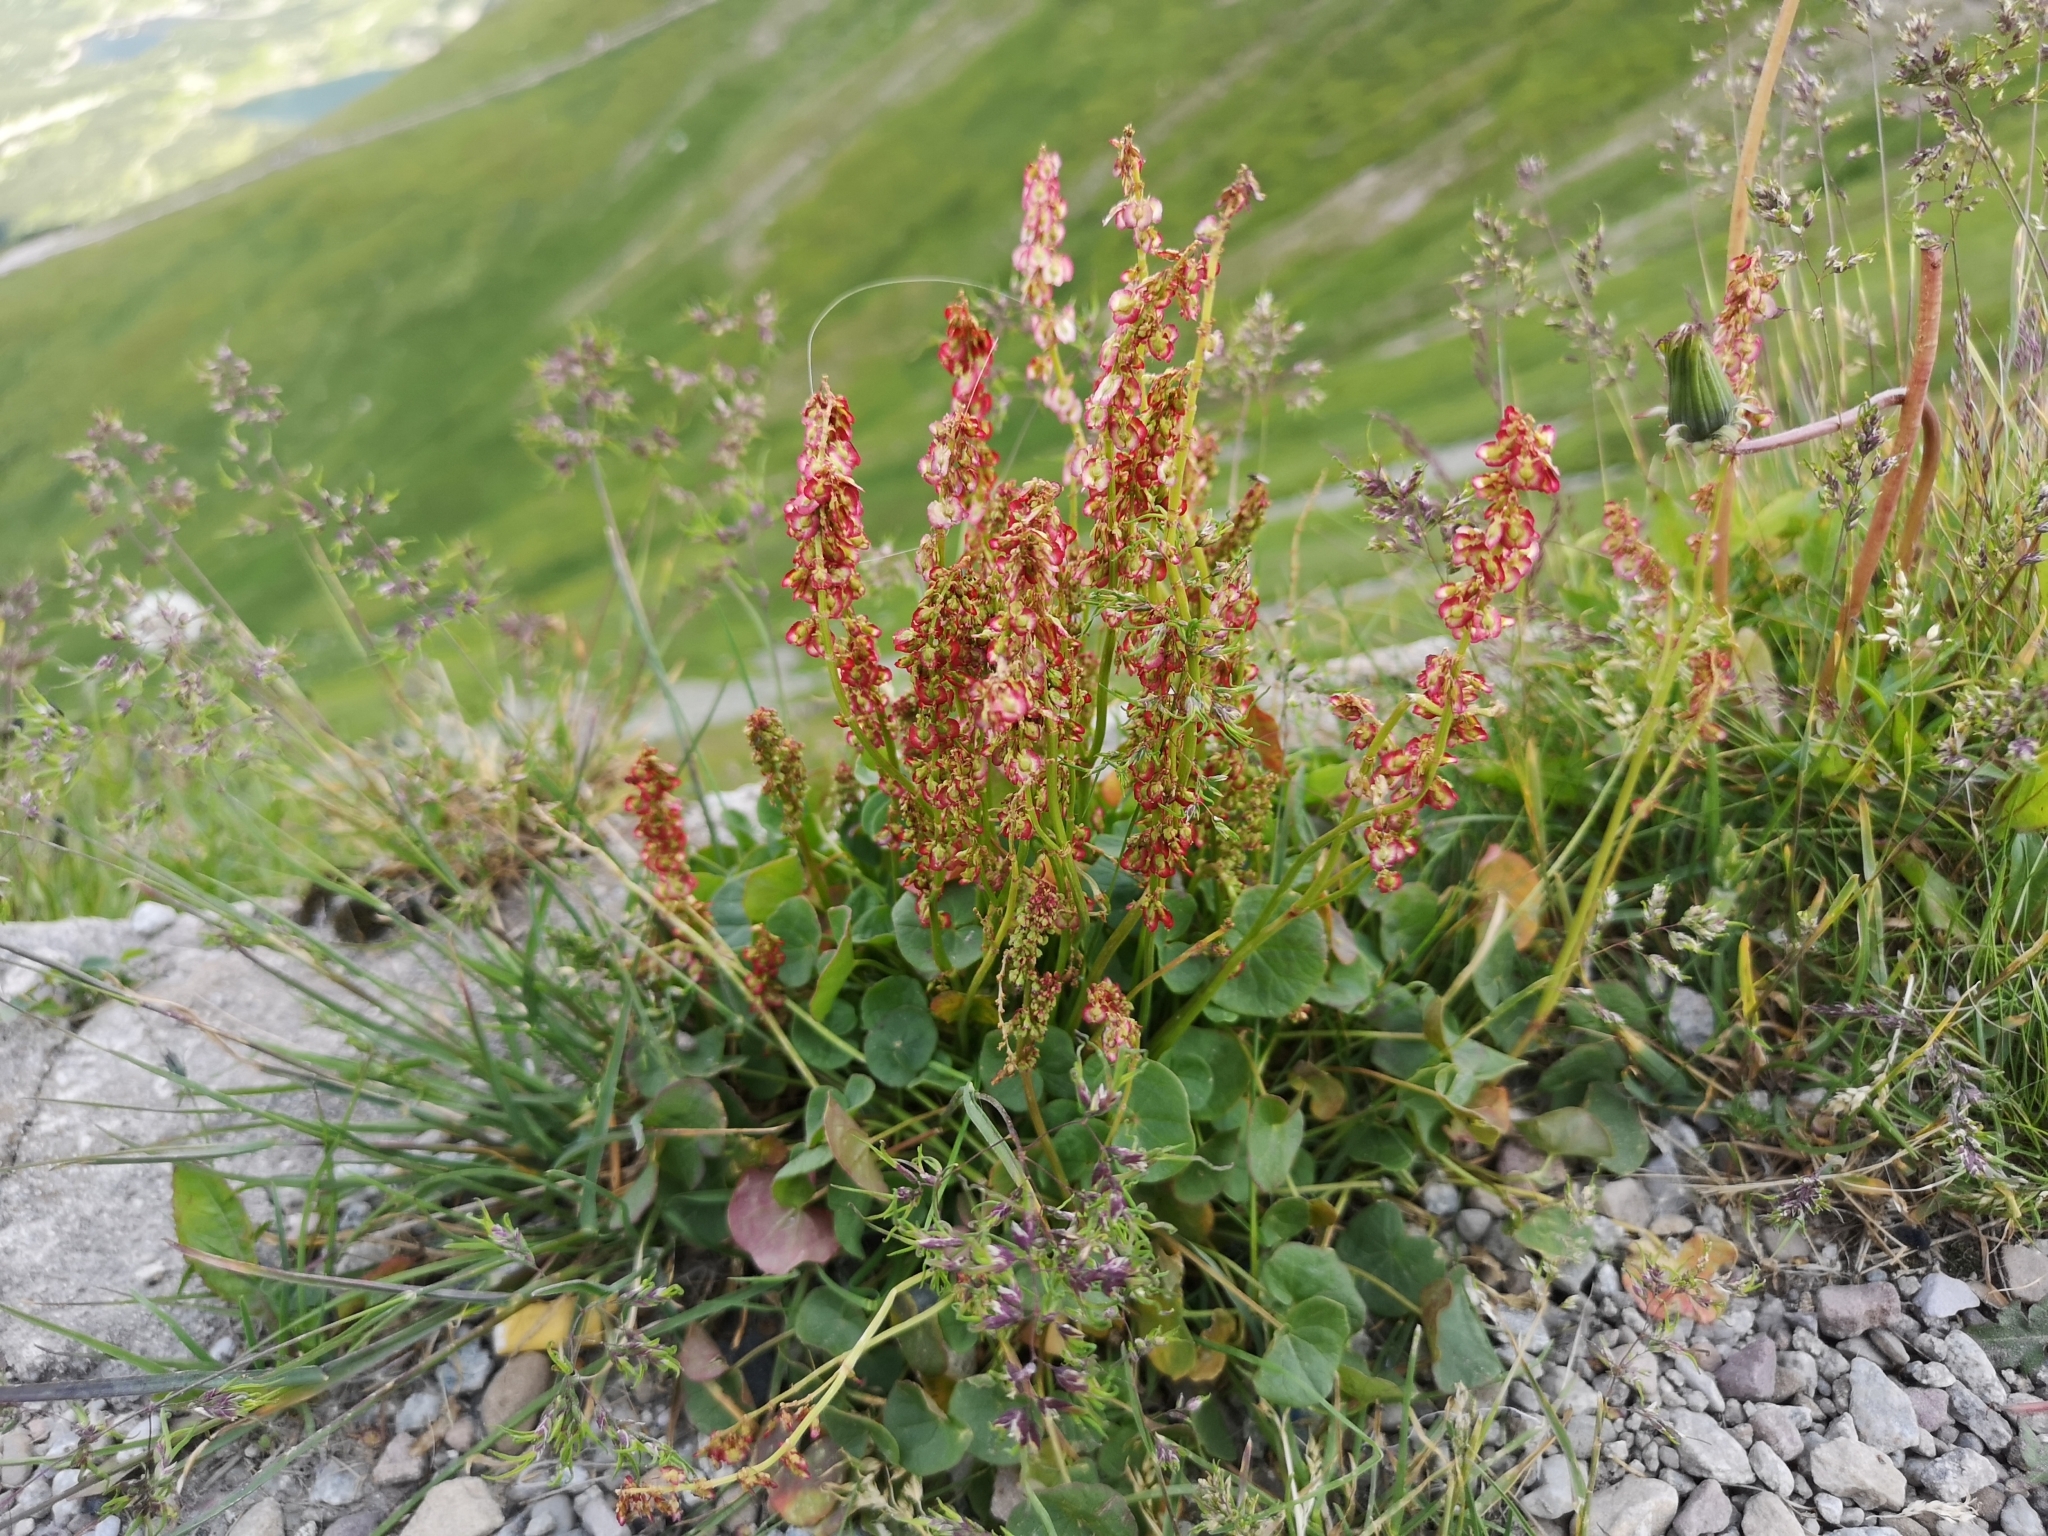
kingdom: Plantae
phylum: Tracheophyta
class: Magnoliopsida
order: Caryophyllales
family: Polygonaceae
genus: Oxyria
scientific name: Oxyria digyna
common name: Alpine mountain-sorrel
